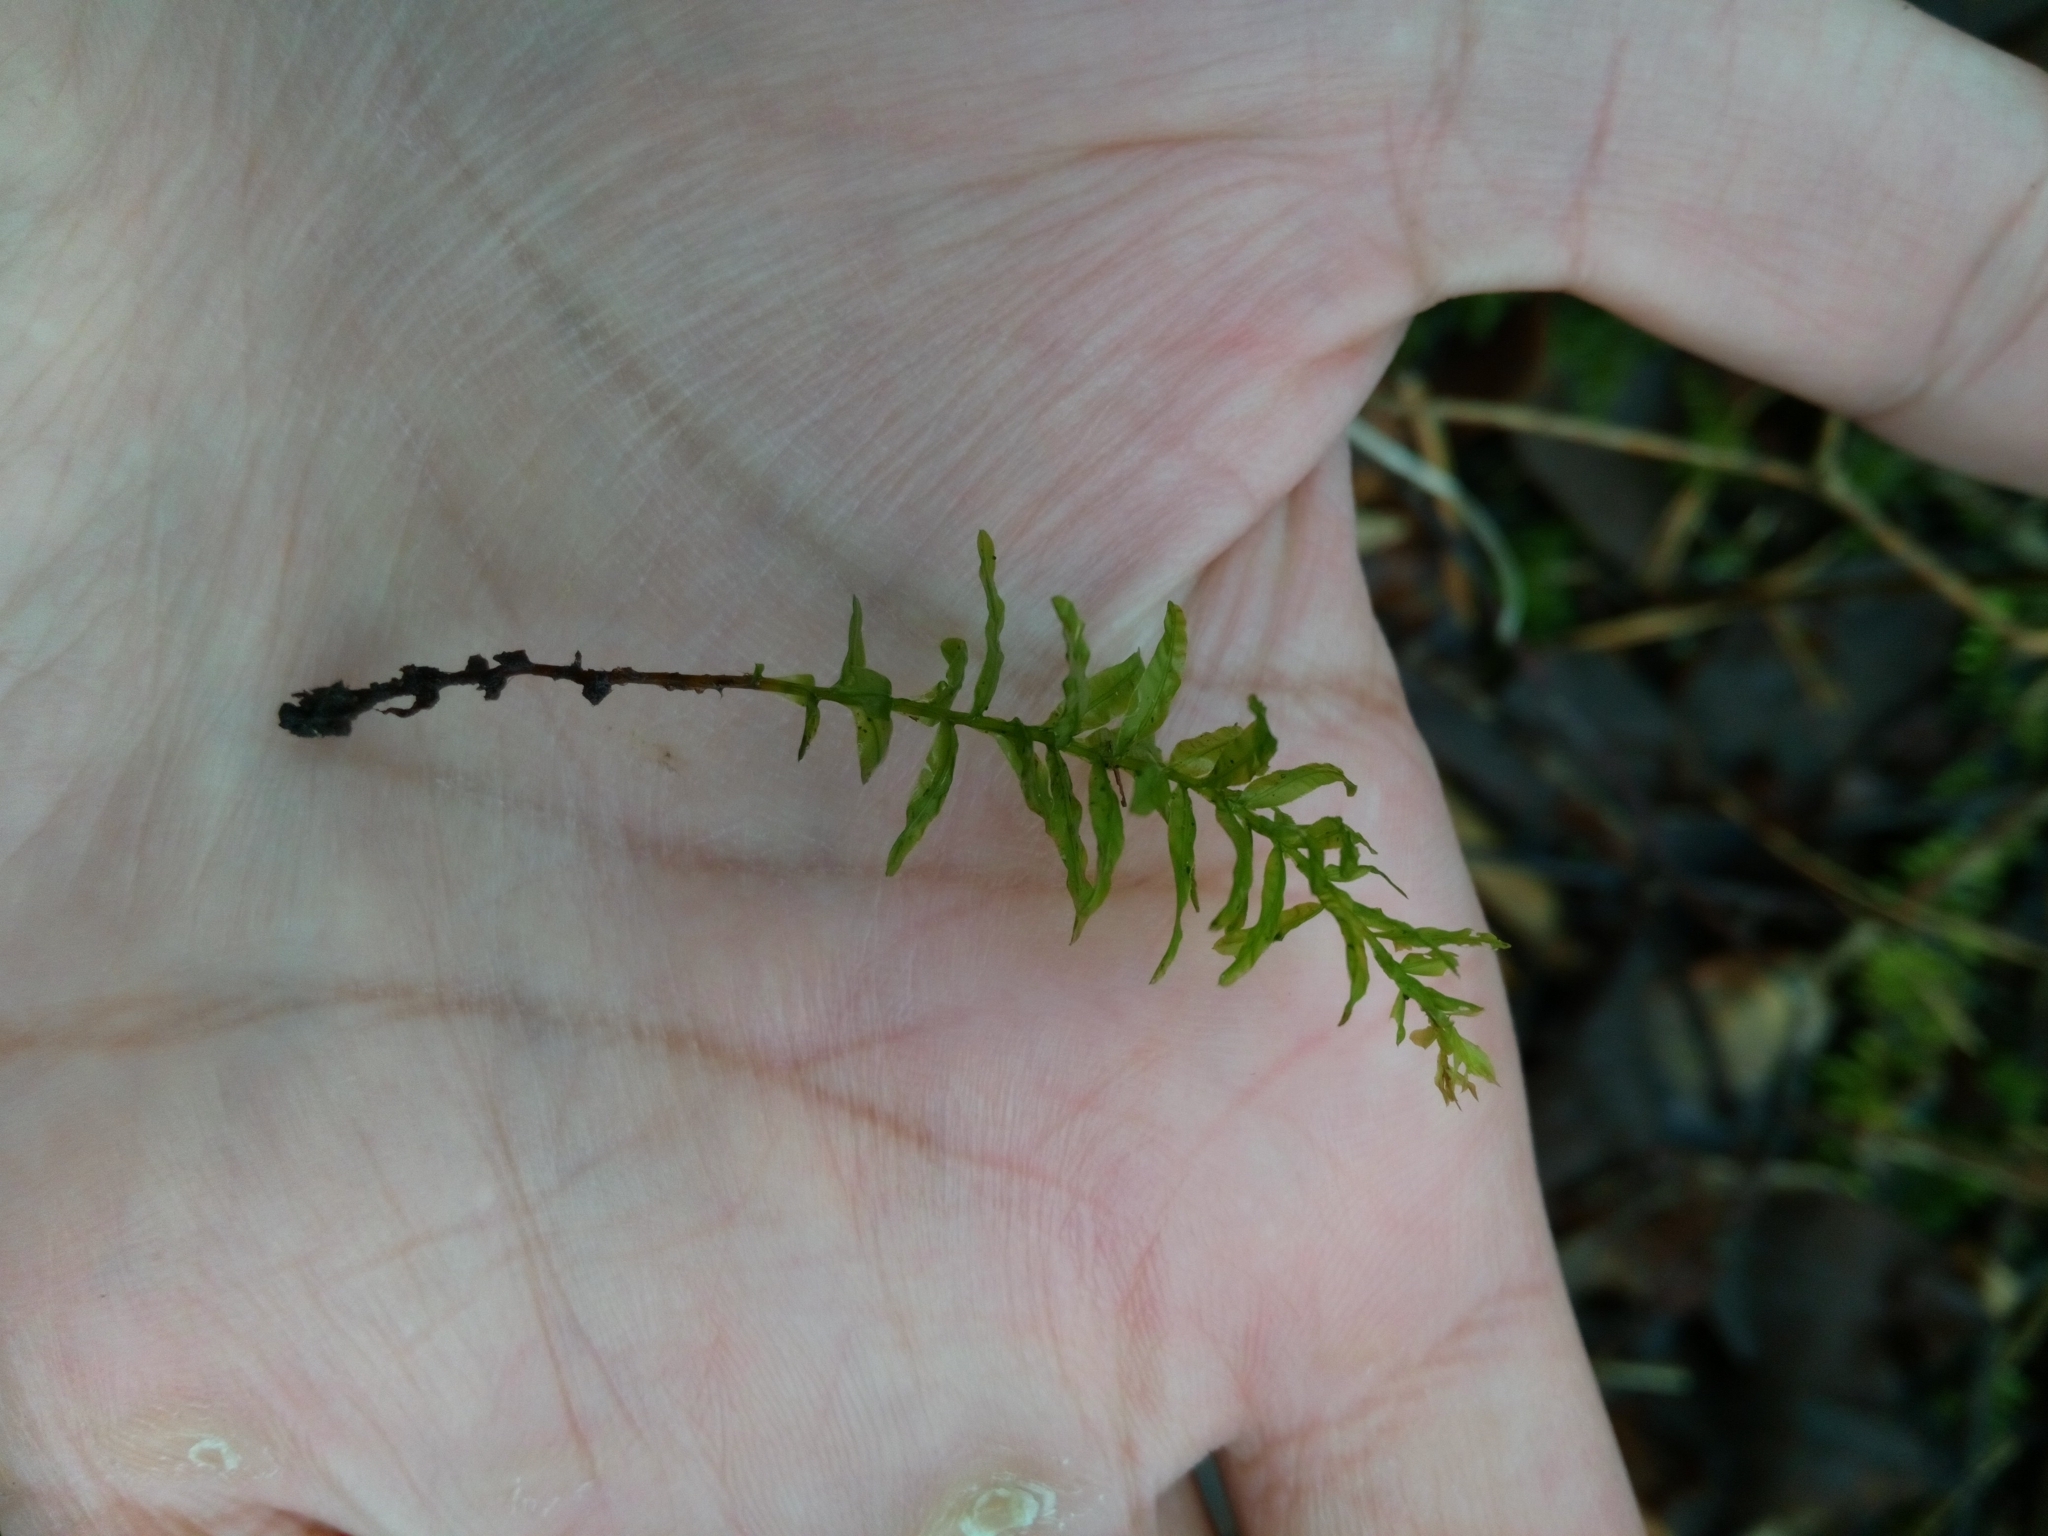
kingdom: Plantae
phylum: Bryophyta
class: Bryopsida
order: Bryales
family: Mniaceae
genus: Plagiomnium
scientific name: Plagiomnium undulatum
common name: Hart's-tongue thyme-moss
